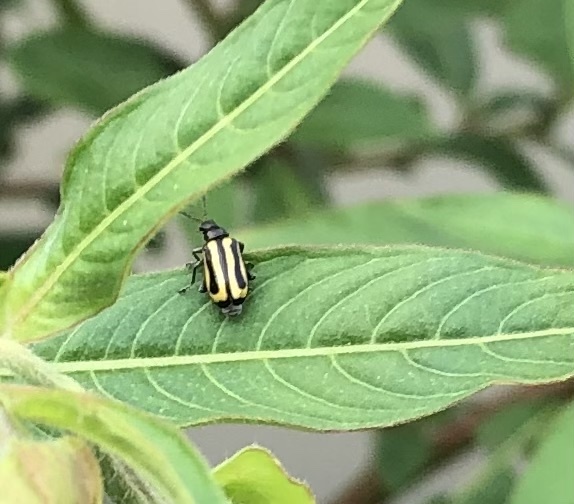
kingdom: Animalia
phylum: Arthropoda
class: Insecta
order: Coleoptera
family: Chrysomelidae
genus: Agasicles
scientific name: Agasicles hygrophila
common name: Alligatorweed flea beetle
